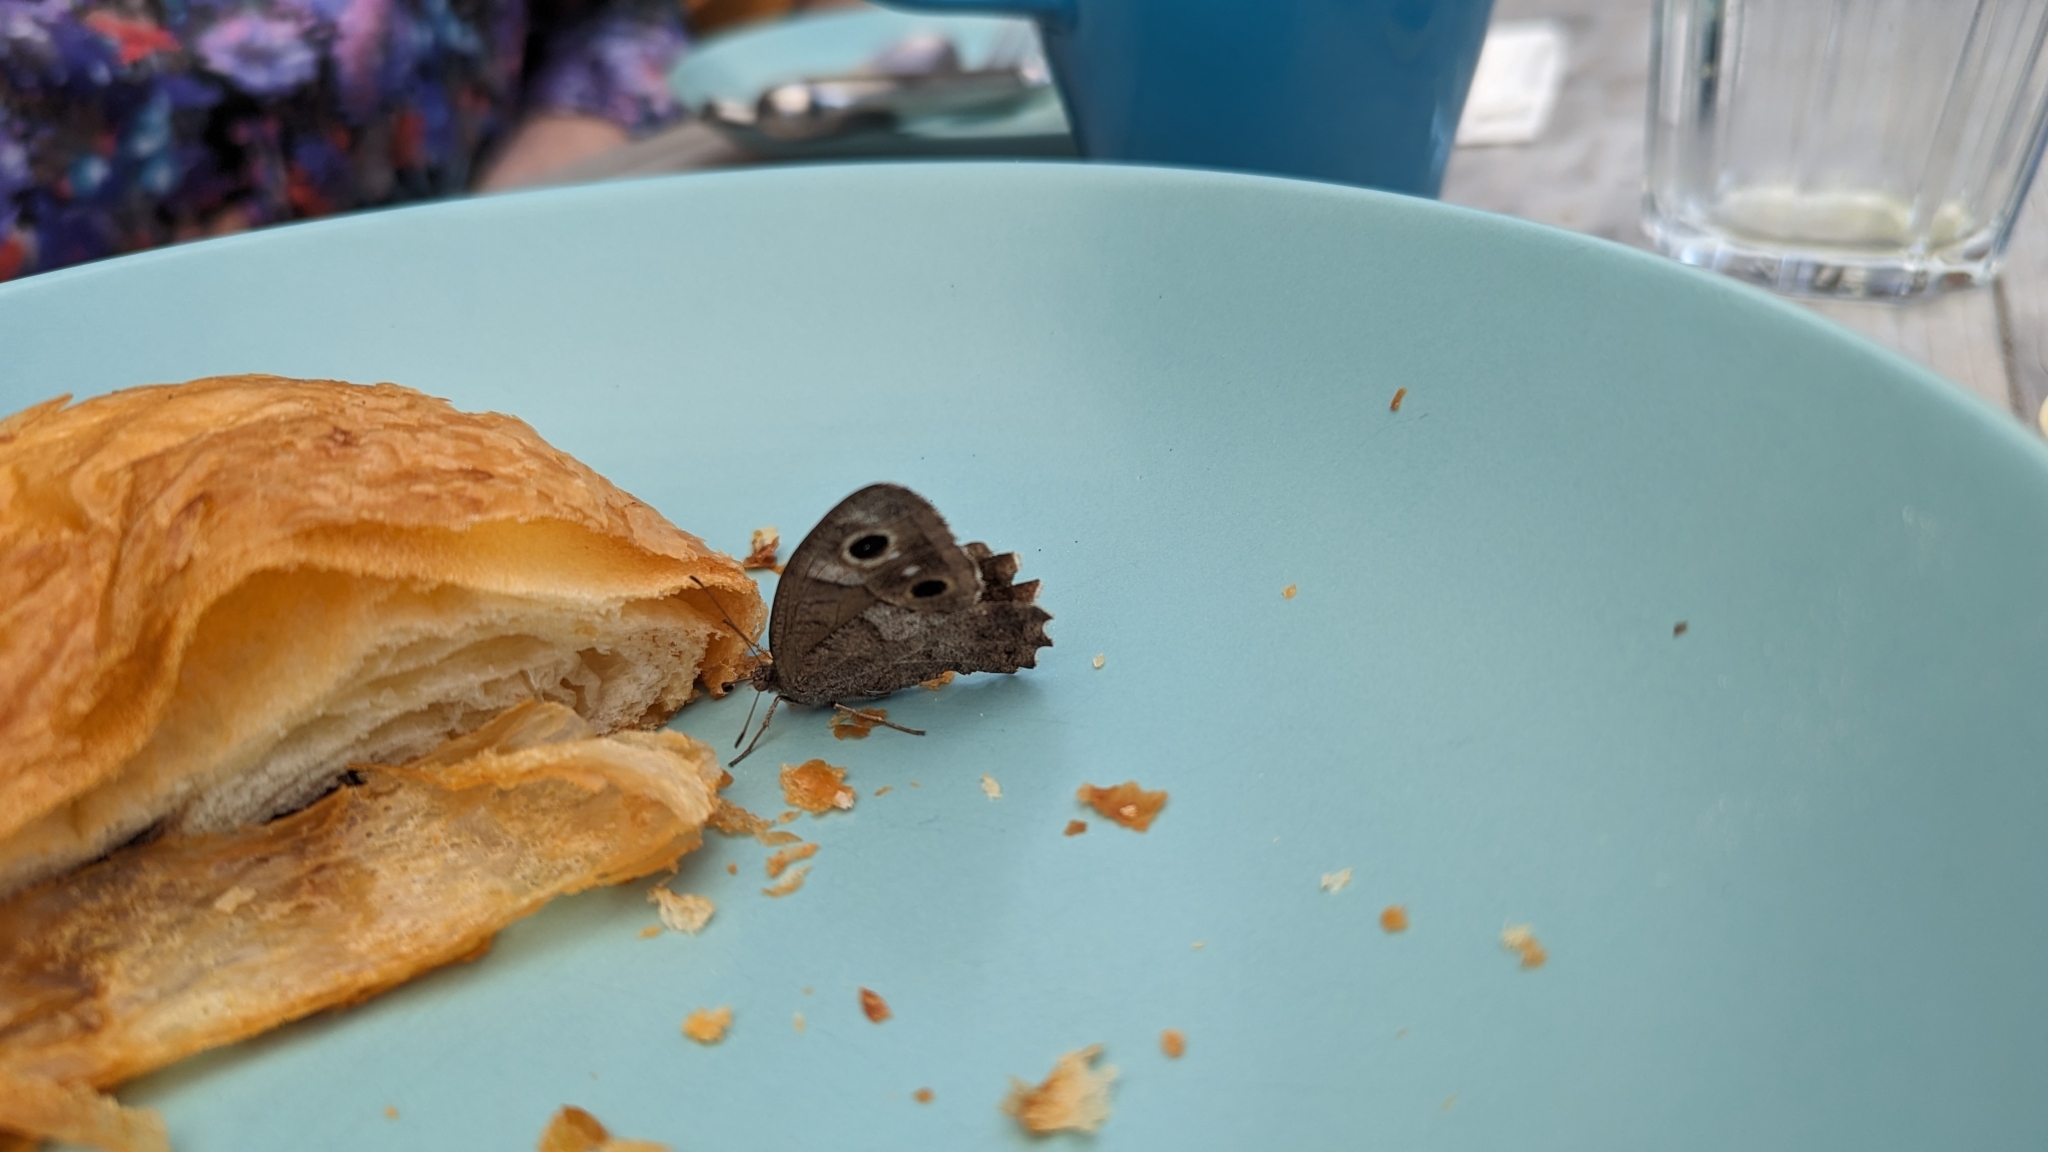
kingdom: Animalia
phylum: Arthropoda
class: Insecta
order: Lepidoptera
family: Nymphalidae
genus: Hipparchia
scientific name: Hipparchia statilinus
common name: Tree grayling
